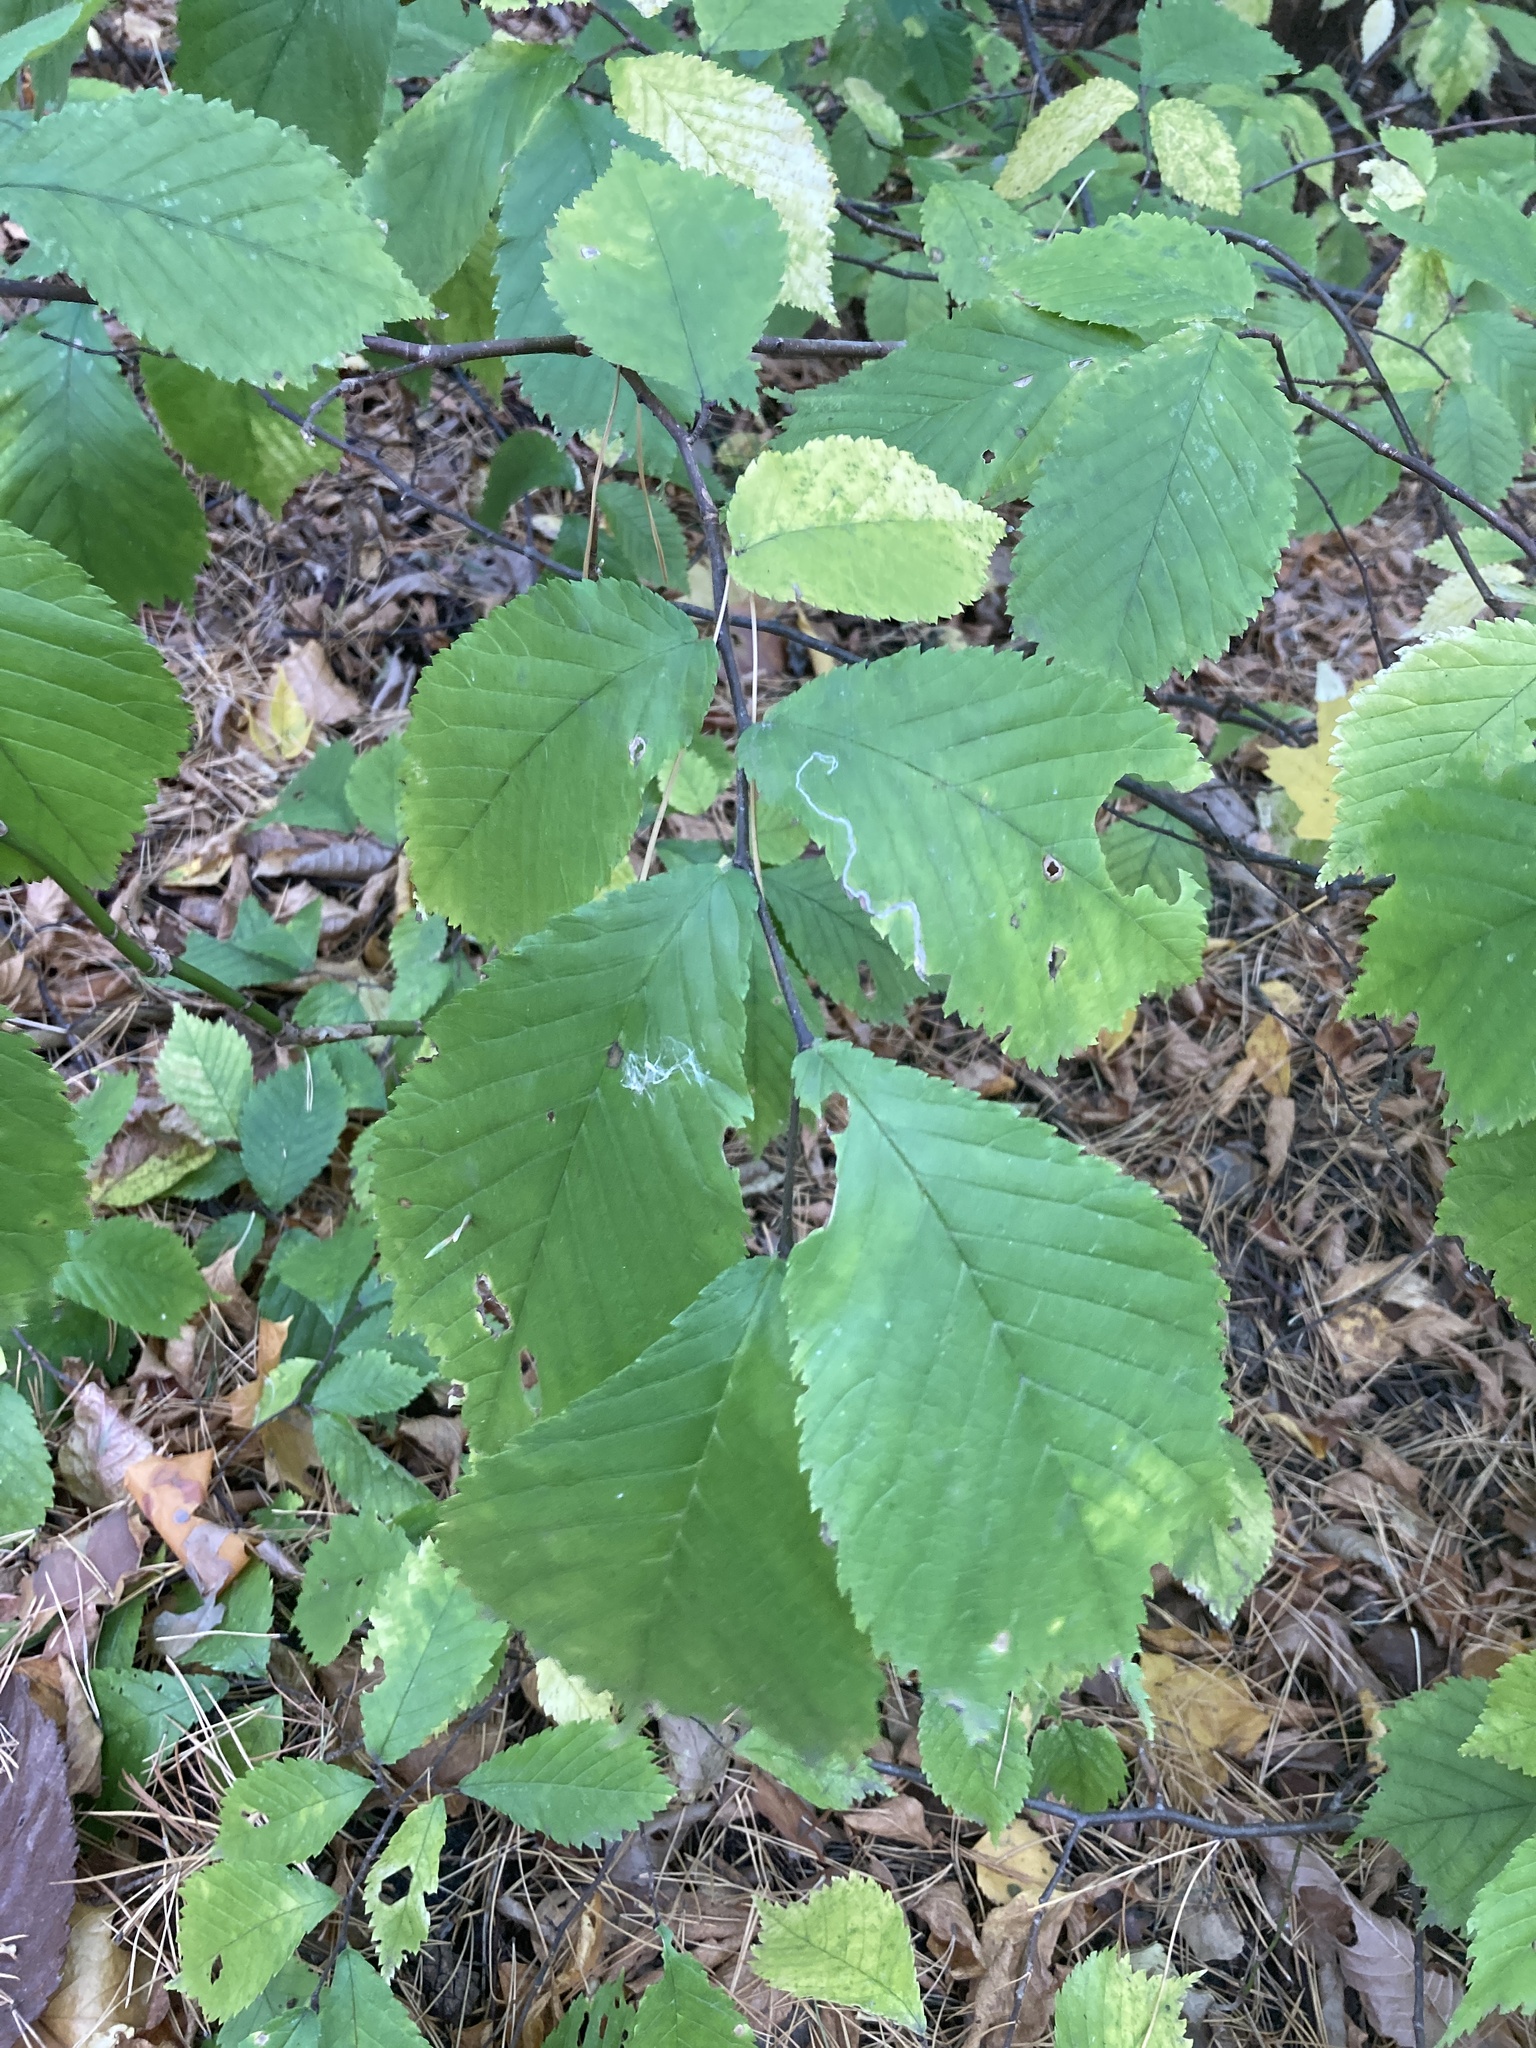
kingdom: Plantae
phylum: Tracheophyta
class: Magnoliopsida
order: Rosales
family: Ulmaceae
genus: Ulmus
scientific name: Ulmus glabra
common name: Wych elm
